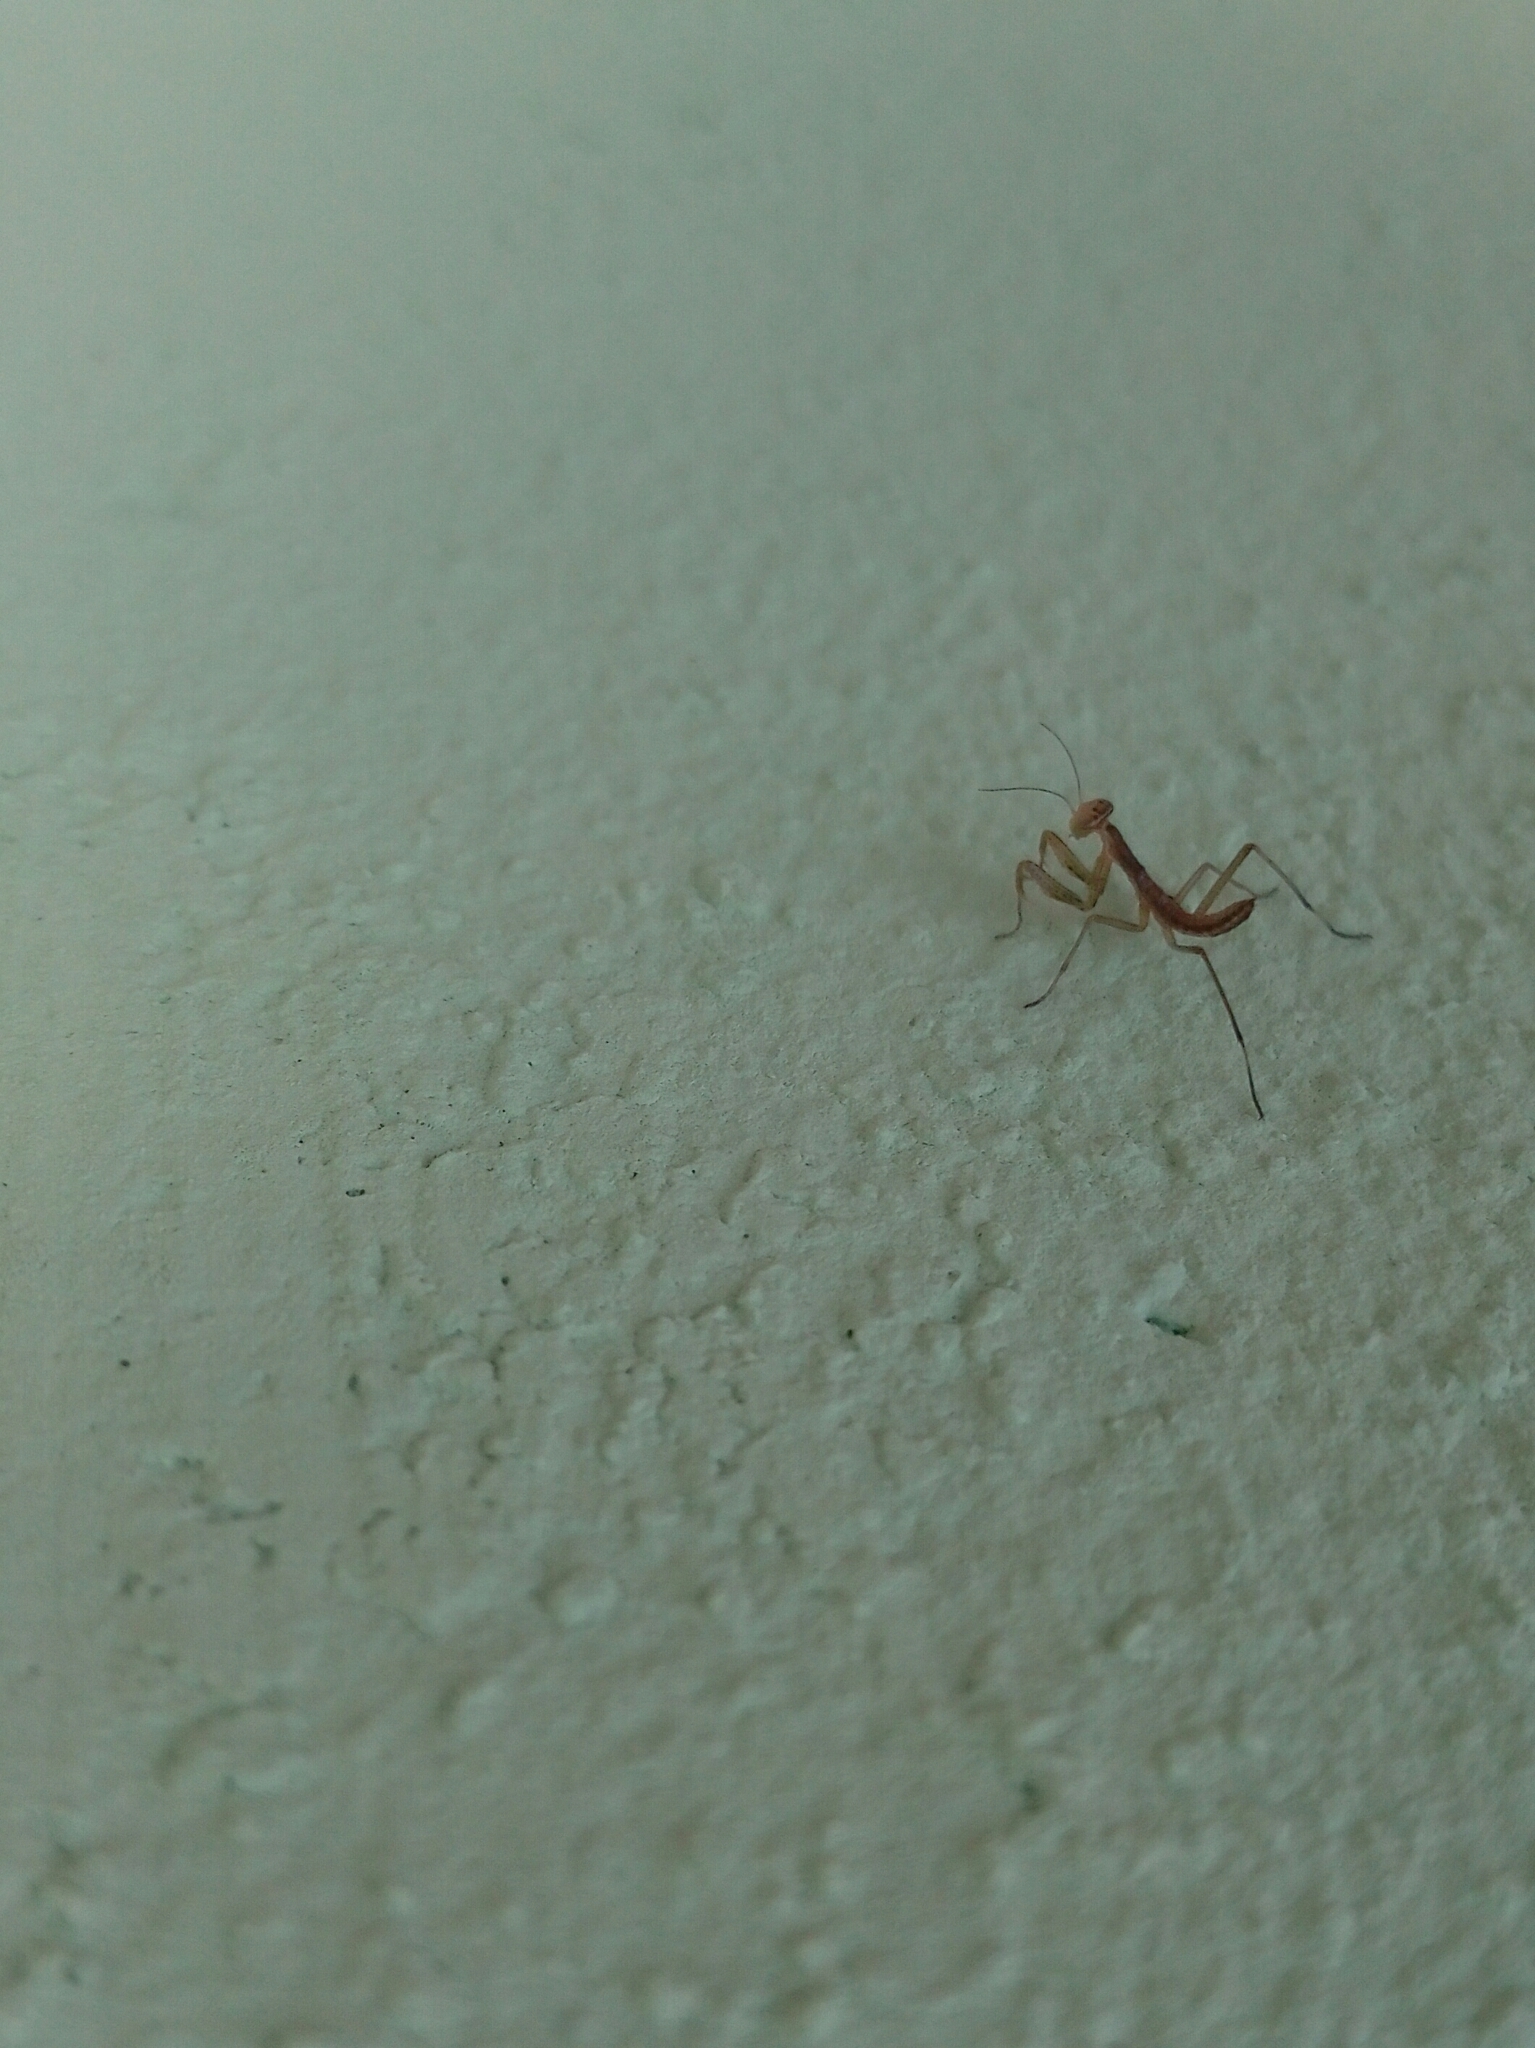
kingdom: Animalia
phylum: Arthropoda
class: Insecta
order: Mantodea
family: Mantidae
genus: Mantis
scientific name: Mantis religiosa
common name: Praying mantis
